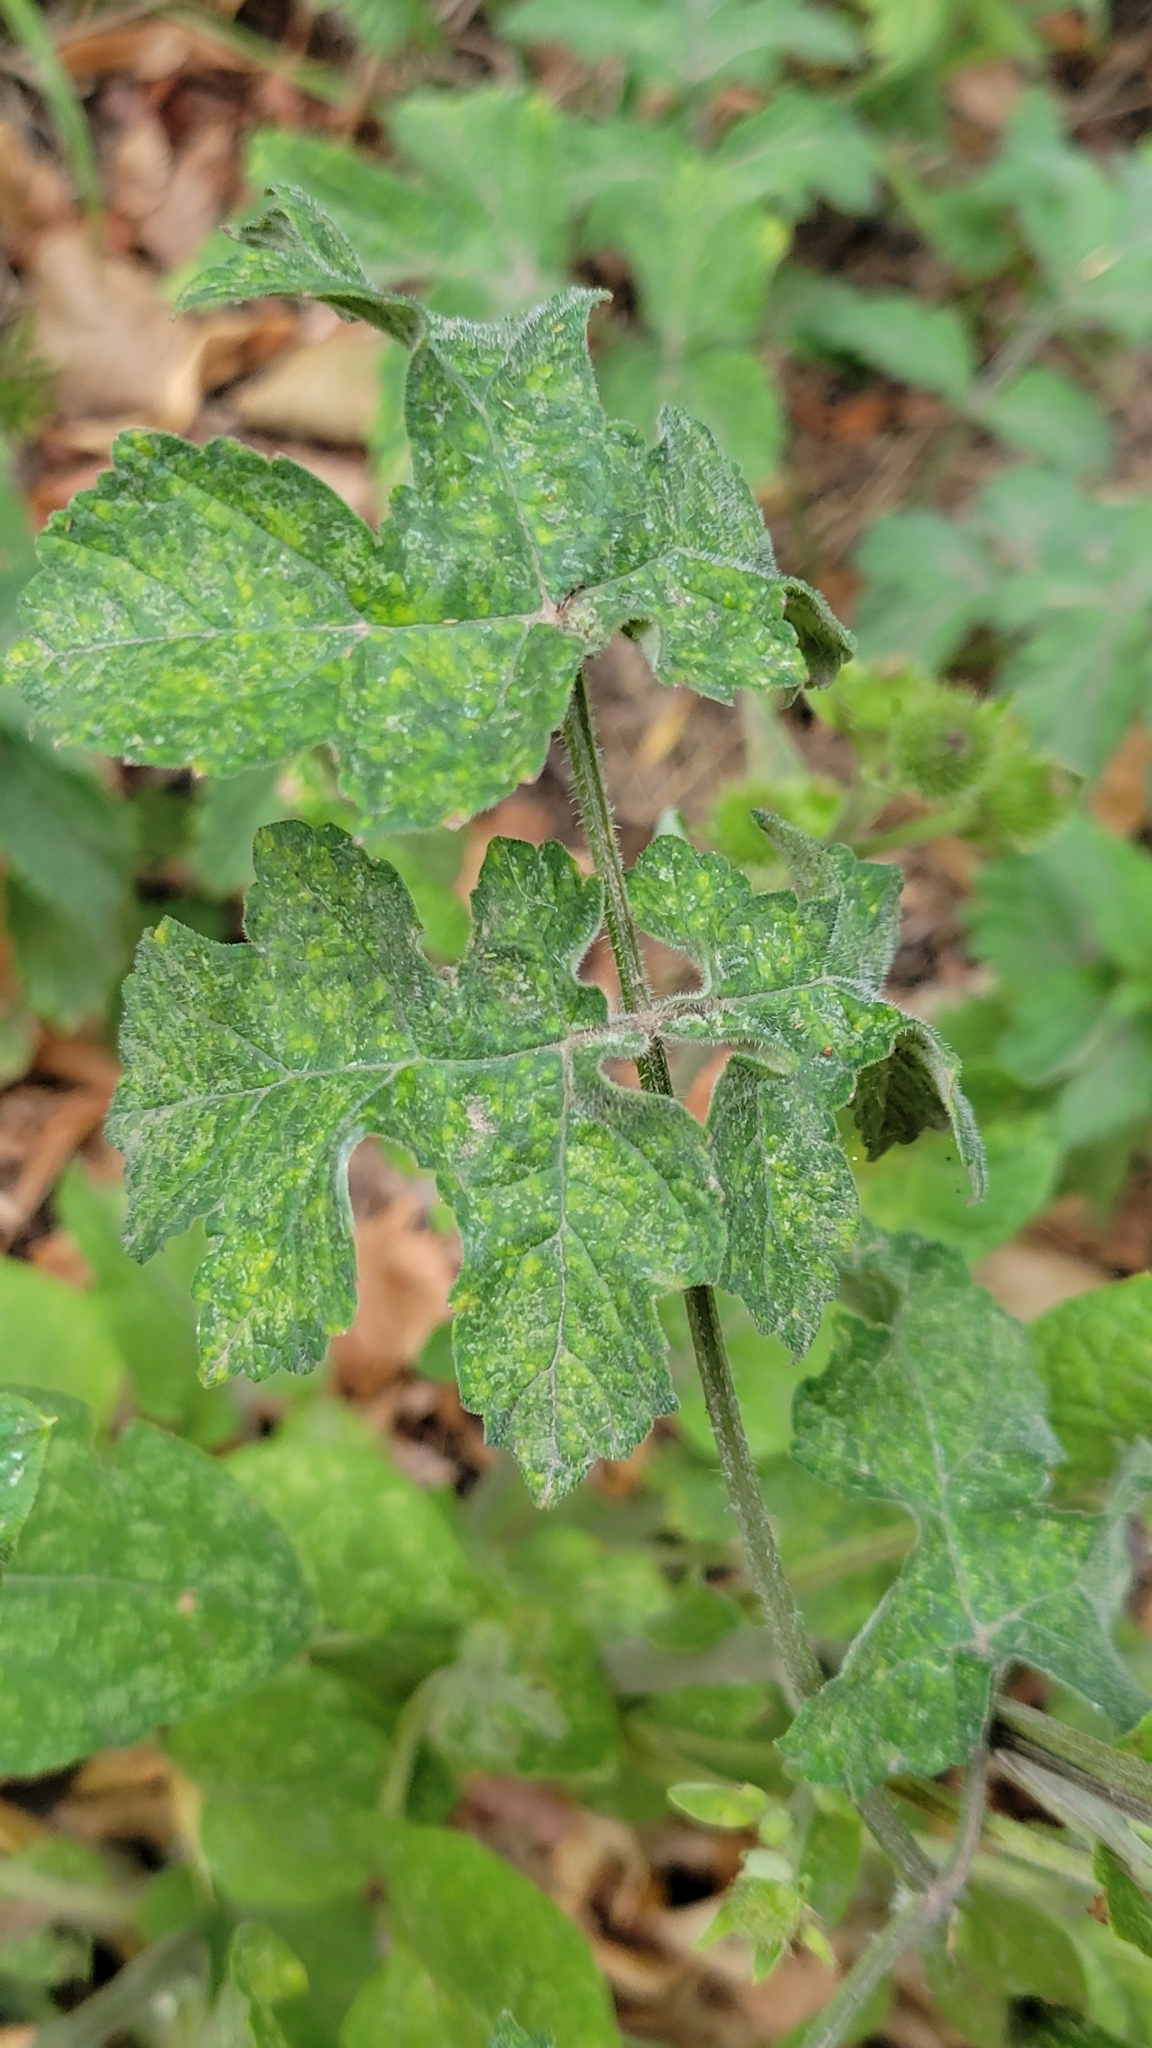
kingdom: Plantae
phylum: Tracheophyta
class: Magnoliopsida
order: Apiales
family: Apiaceae
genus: Heracleum
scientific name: Heracleum sphondylium
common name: Hogweed
